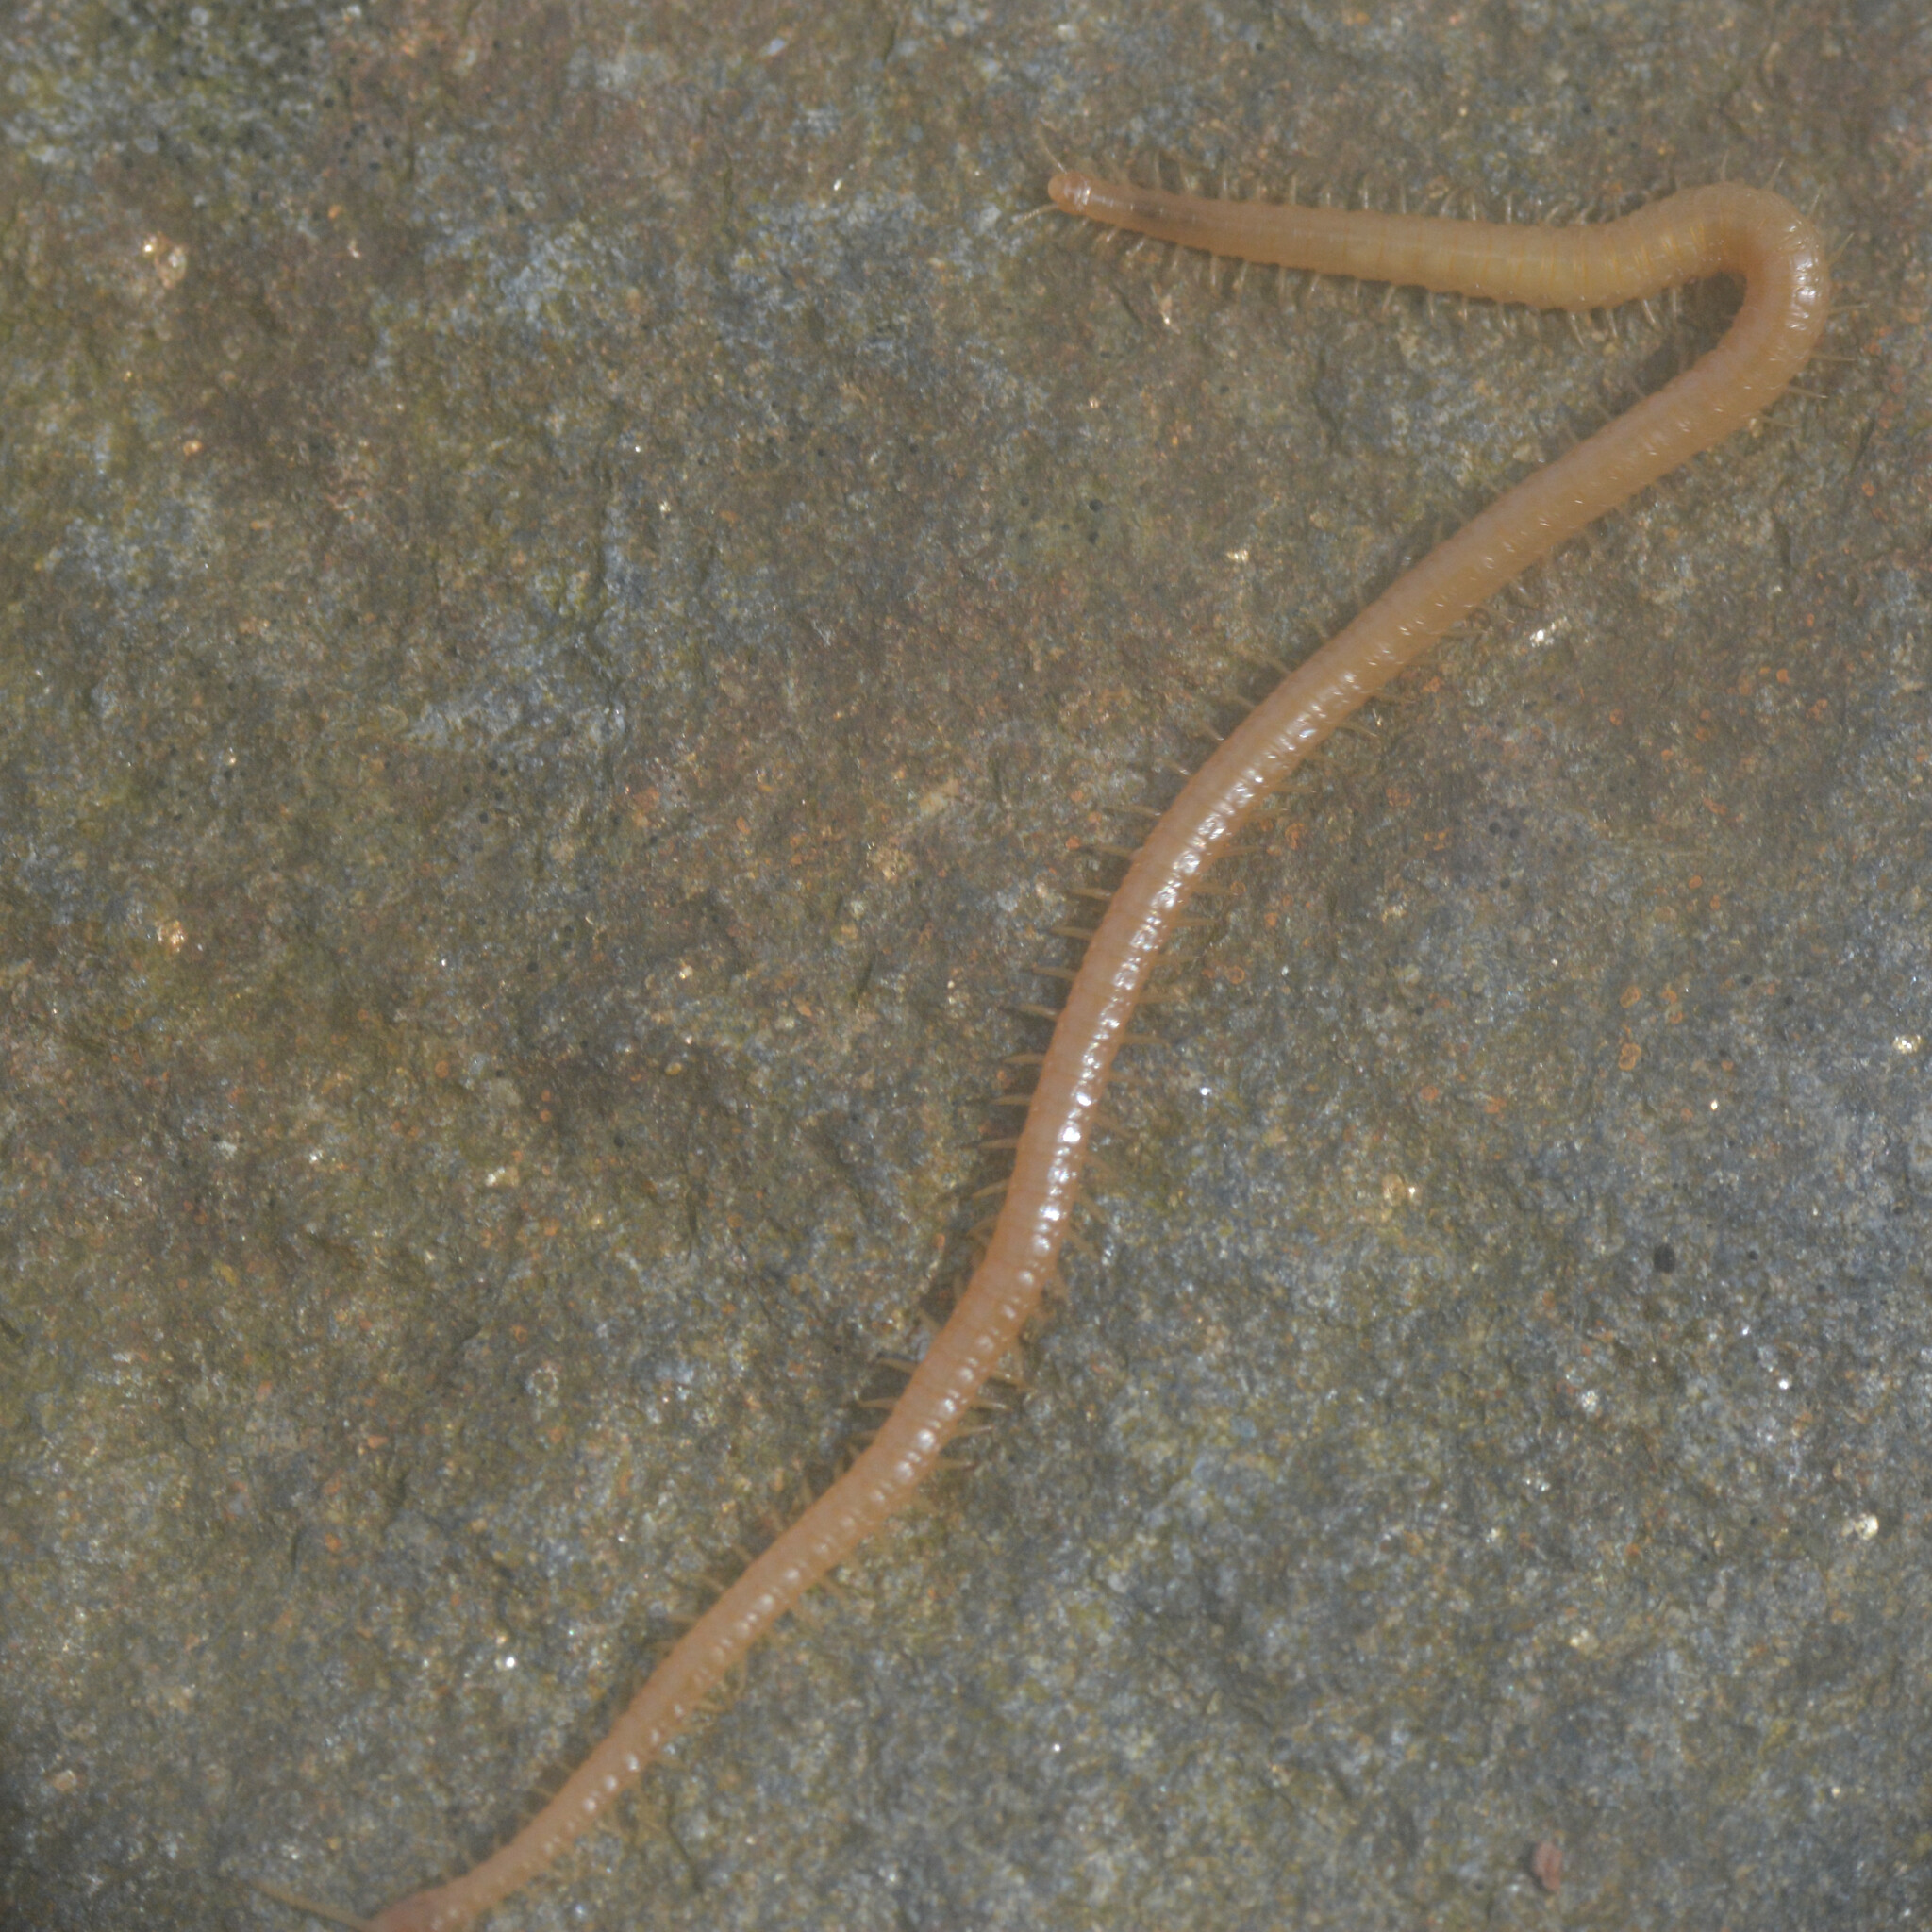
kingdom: Animalia
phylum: Arthropoda
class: Chilopoda
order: Geophilomorpha
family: Himantariidae
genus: Stigmatogaster
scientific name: Stigmatogaster subterranea
